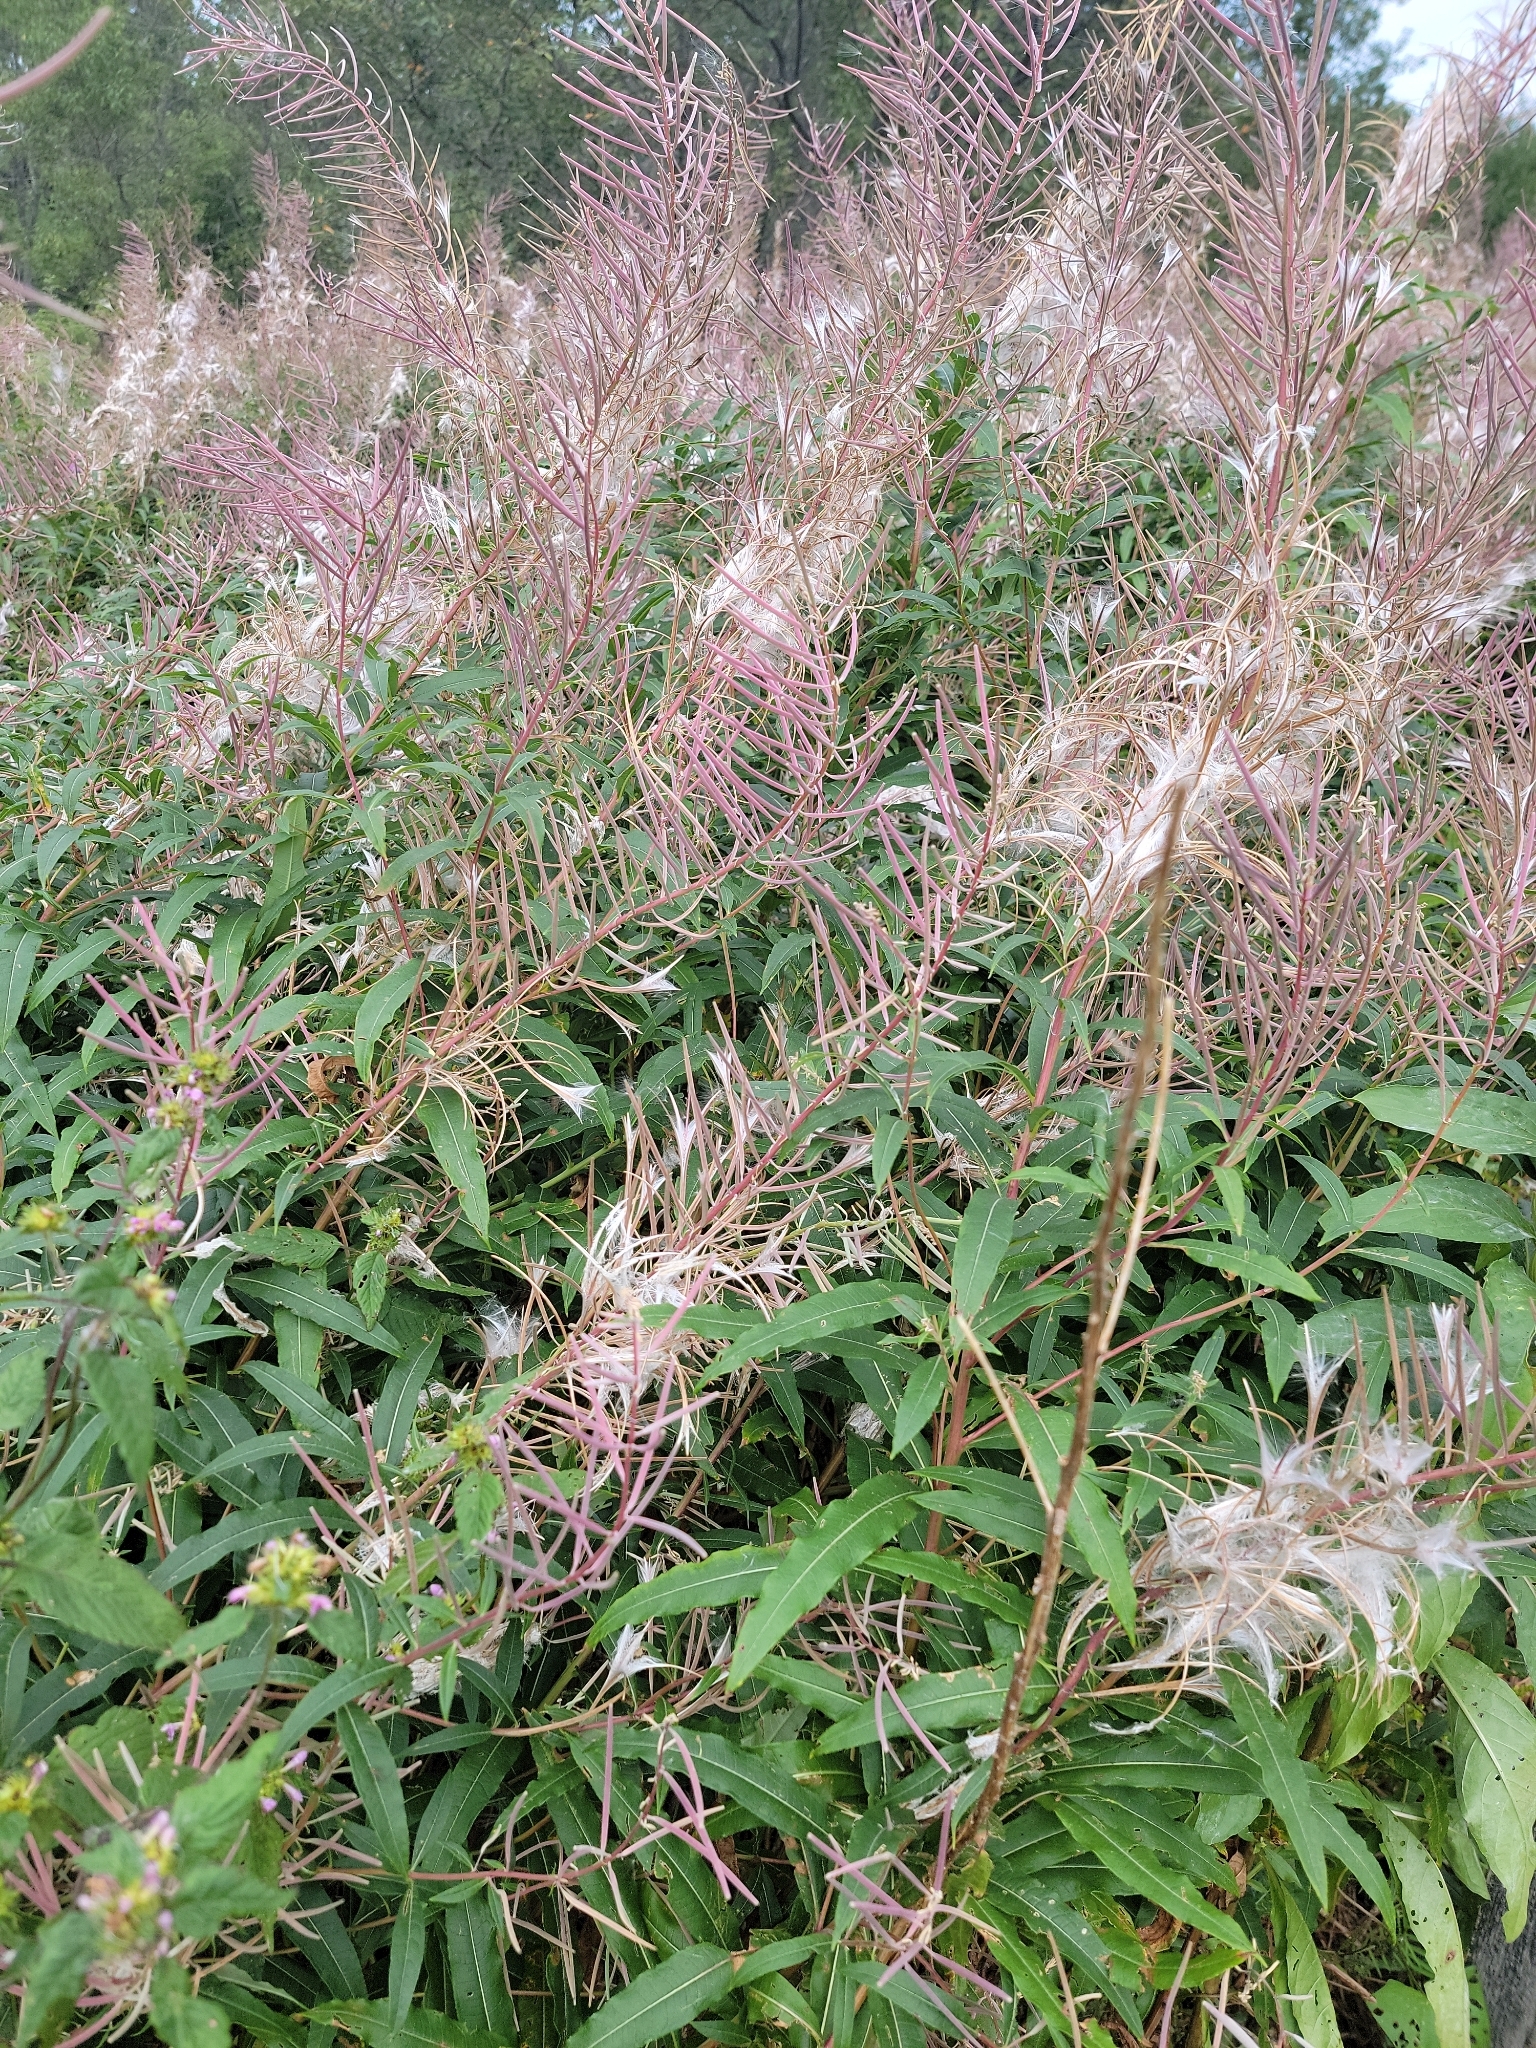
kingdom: Plantae
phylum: Tracheophyta
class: Magnoliopsida
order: Myrtales
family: Onagraceae
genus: Chamaenerion
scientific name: Chamaenerion angustifolium
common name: Fireweed
